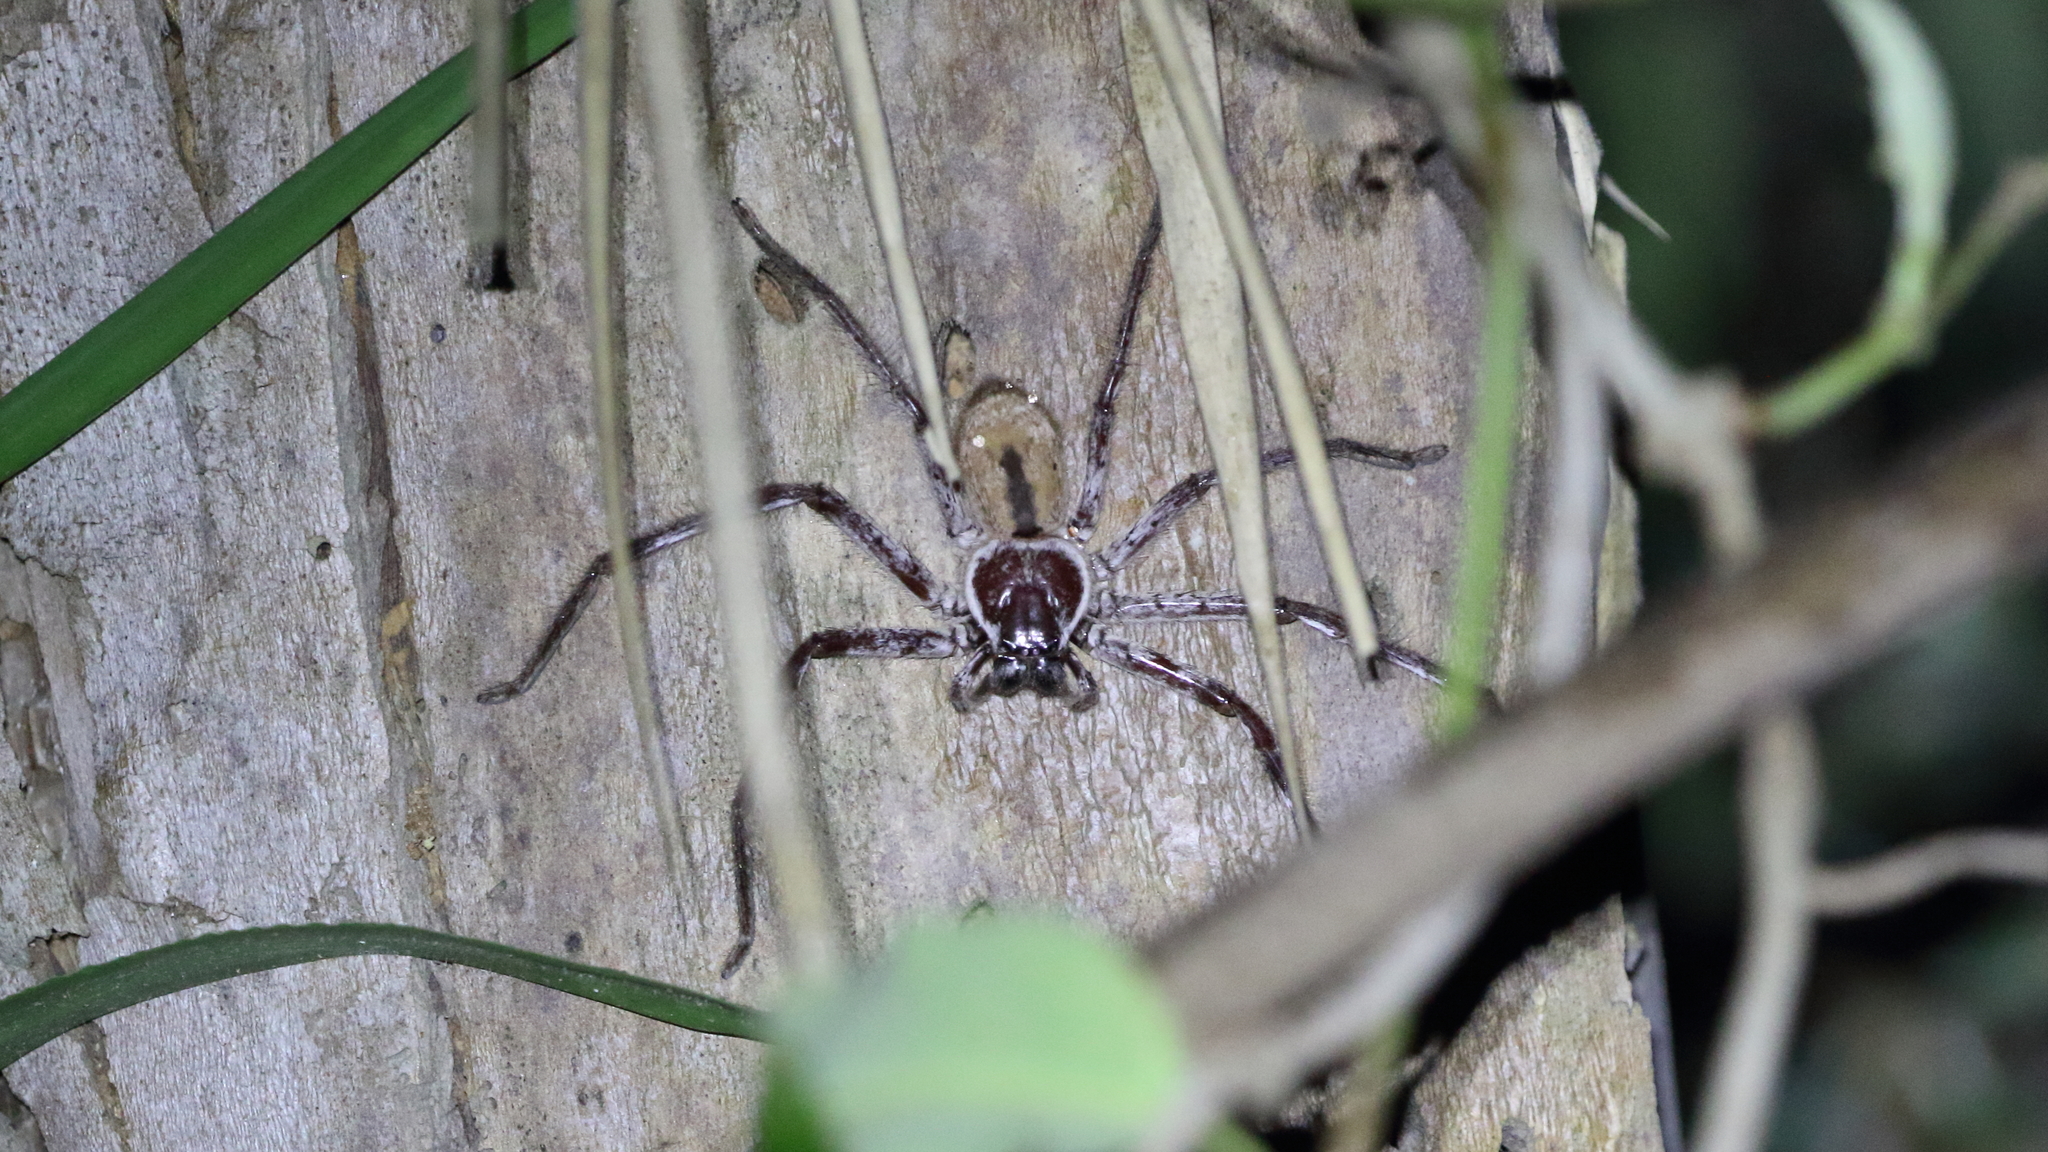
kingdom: Animalia
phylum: Arthropoda
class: Arachnida
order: Araneae
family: Sparassidae
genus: Holconia
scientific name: Holconia immanis
